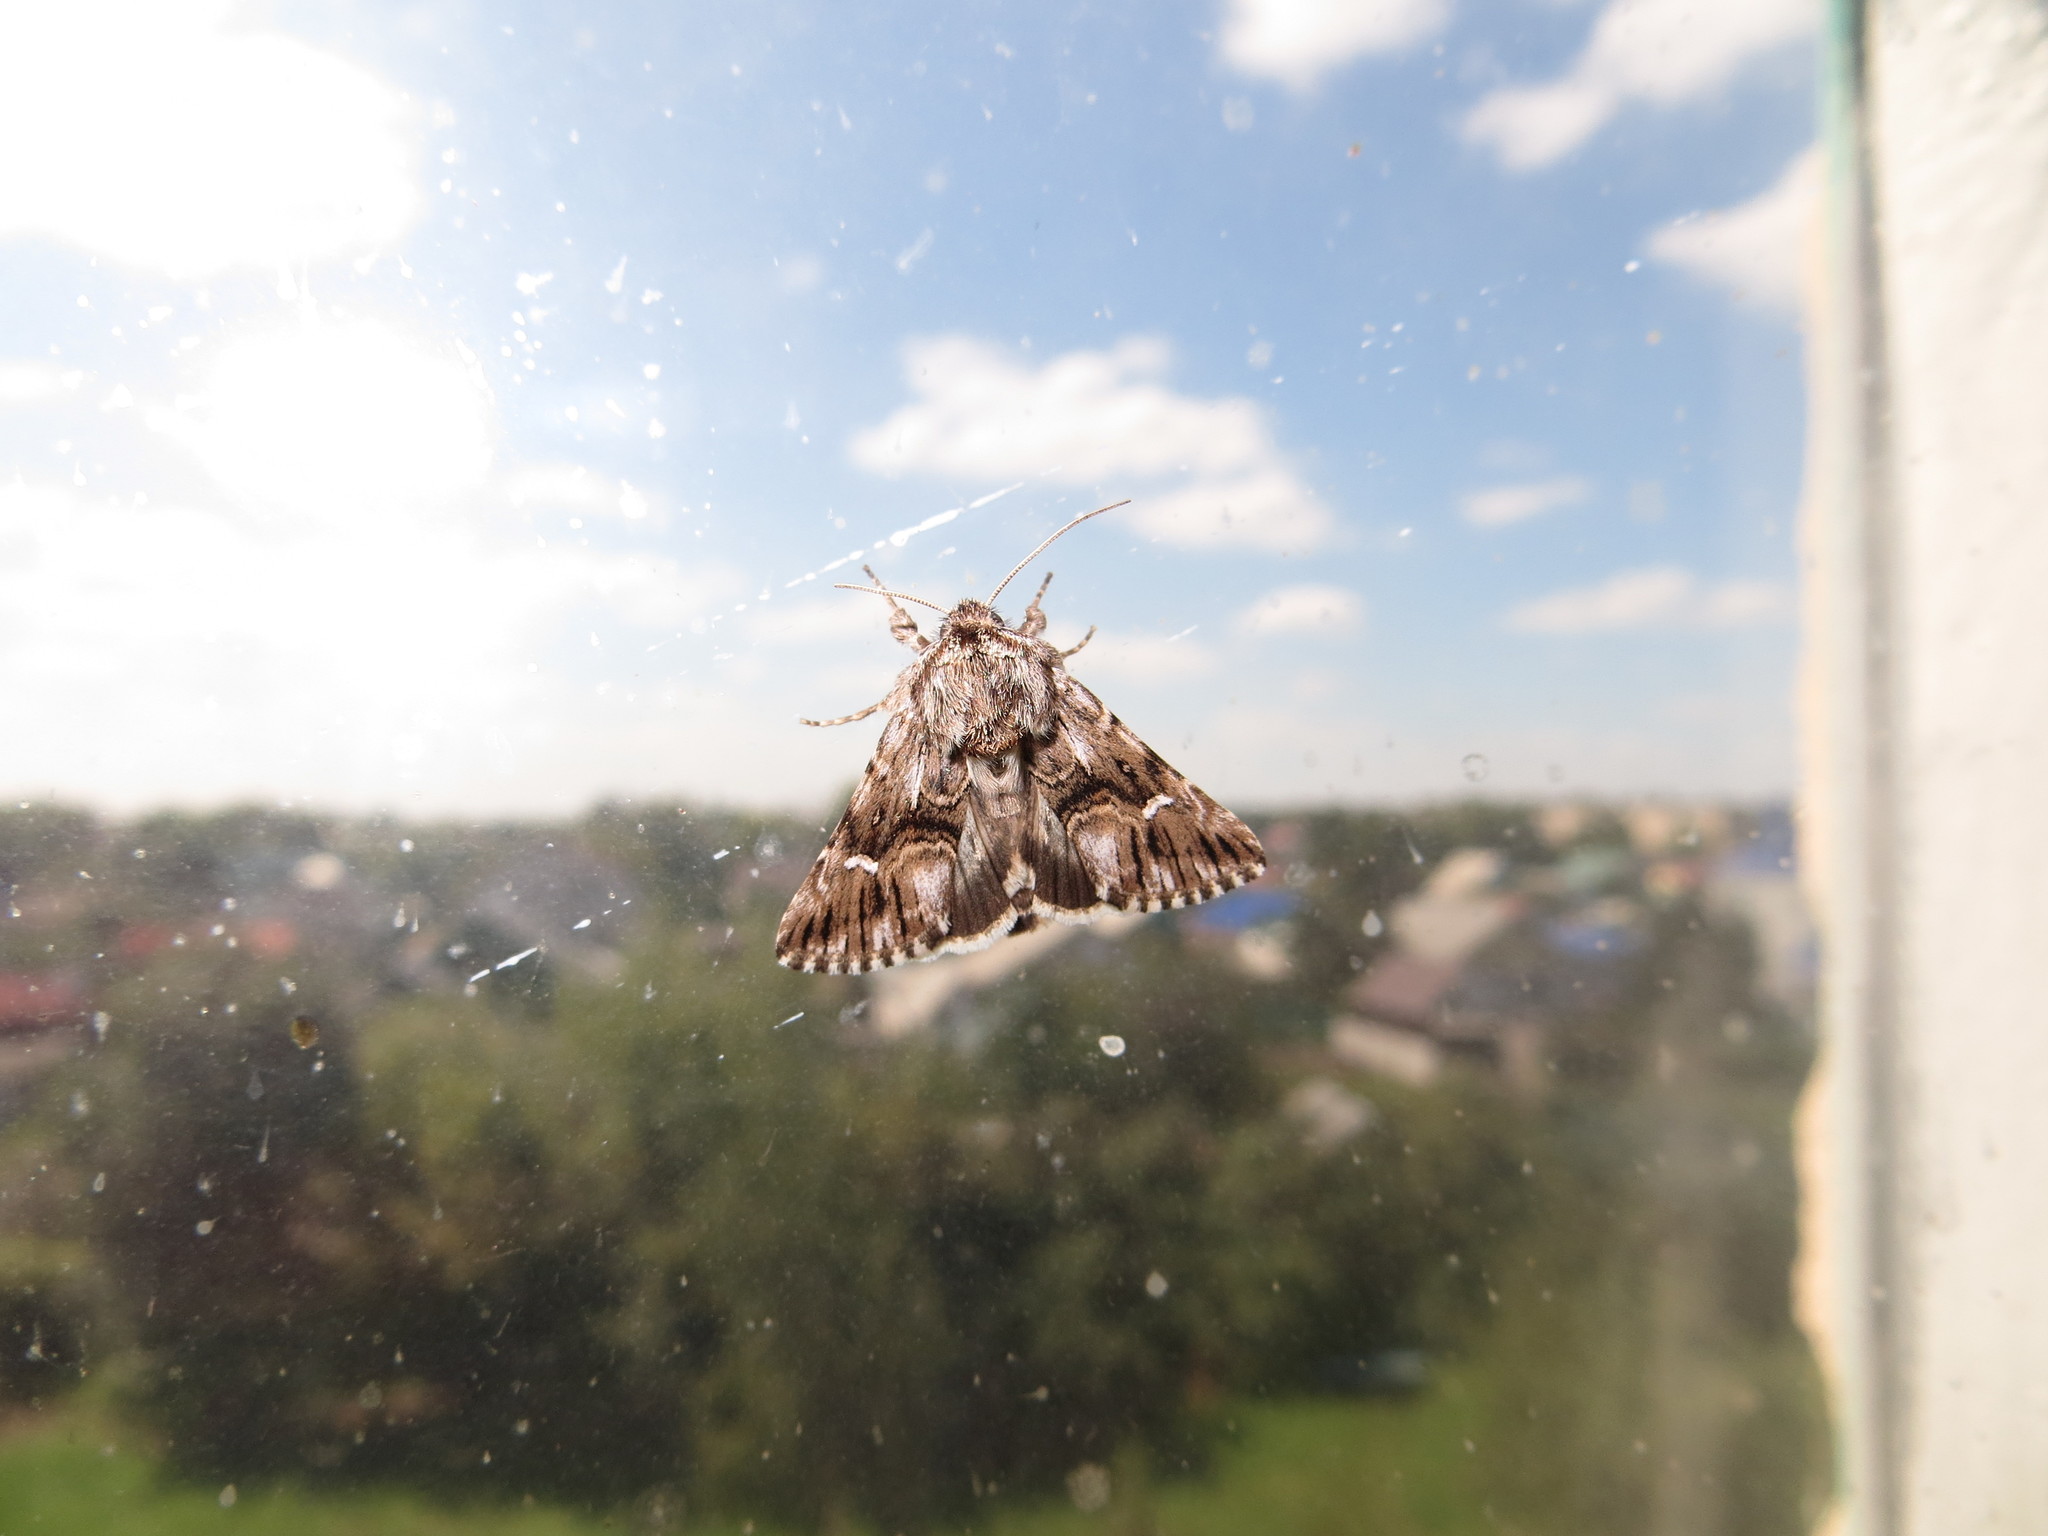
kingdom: Animalia
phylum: Arthropoda
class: Insecta
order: Lepidoptera
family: Noctuidae
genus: Calophasia
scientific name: Calophasia lunula
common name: Toadflax brocade
